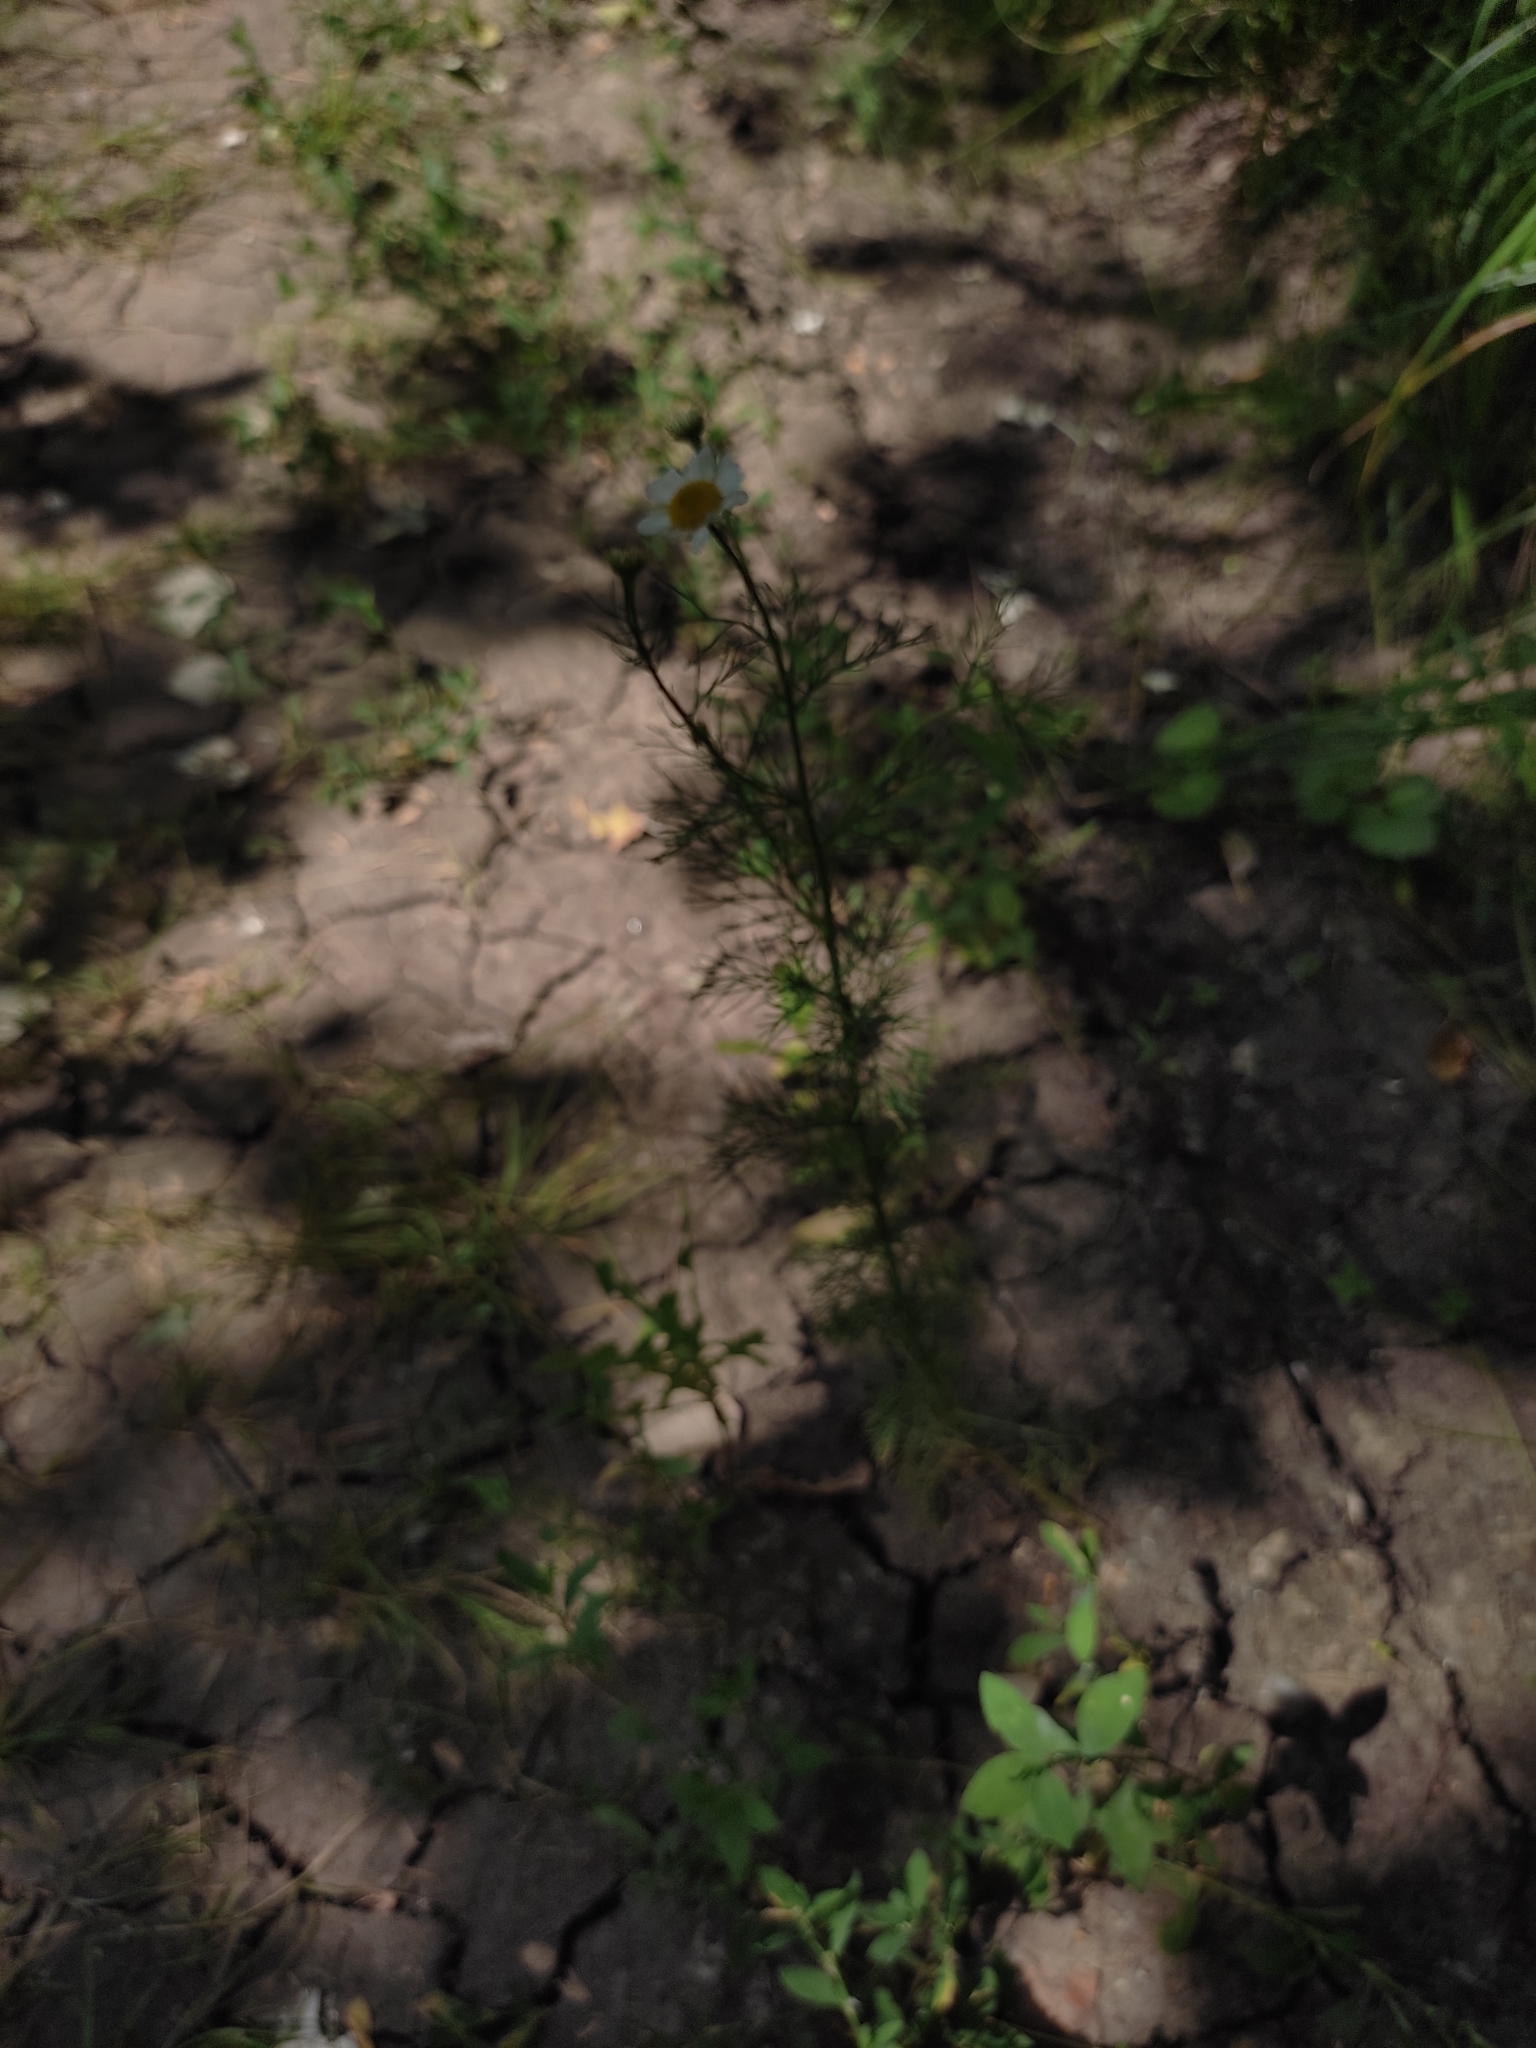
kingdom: Plantae
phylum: Tracheophyta
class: Magnoliopsida
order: Asterales
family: Asteraceae
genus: Tripleurospermum
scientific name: Tripleurospermum inodorum
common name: Scentless mayweed
